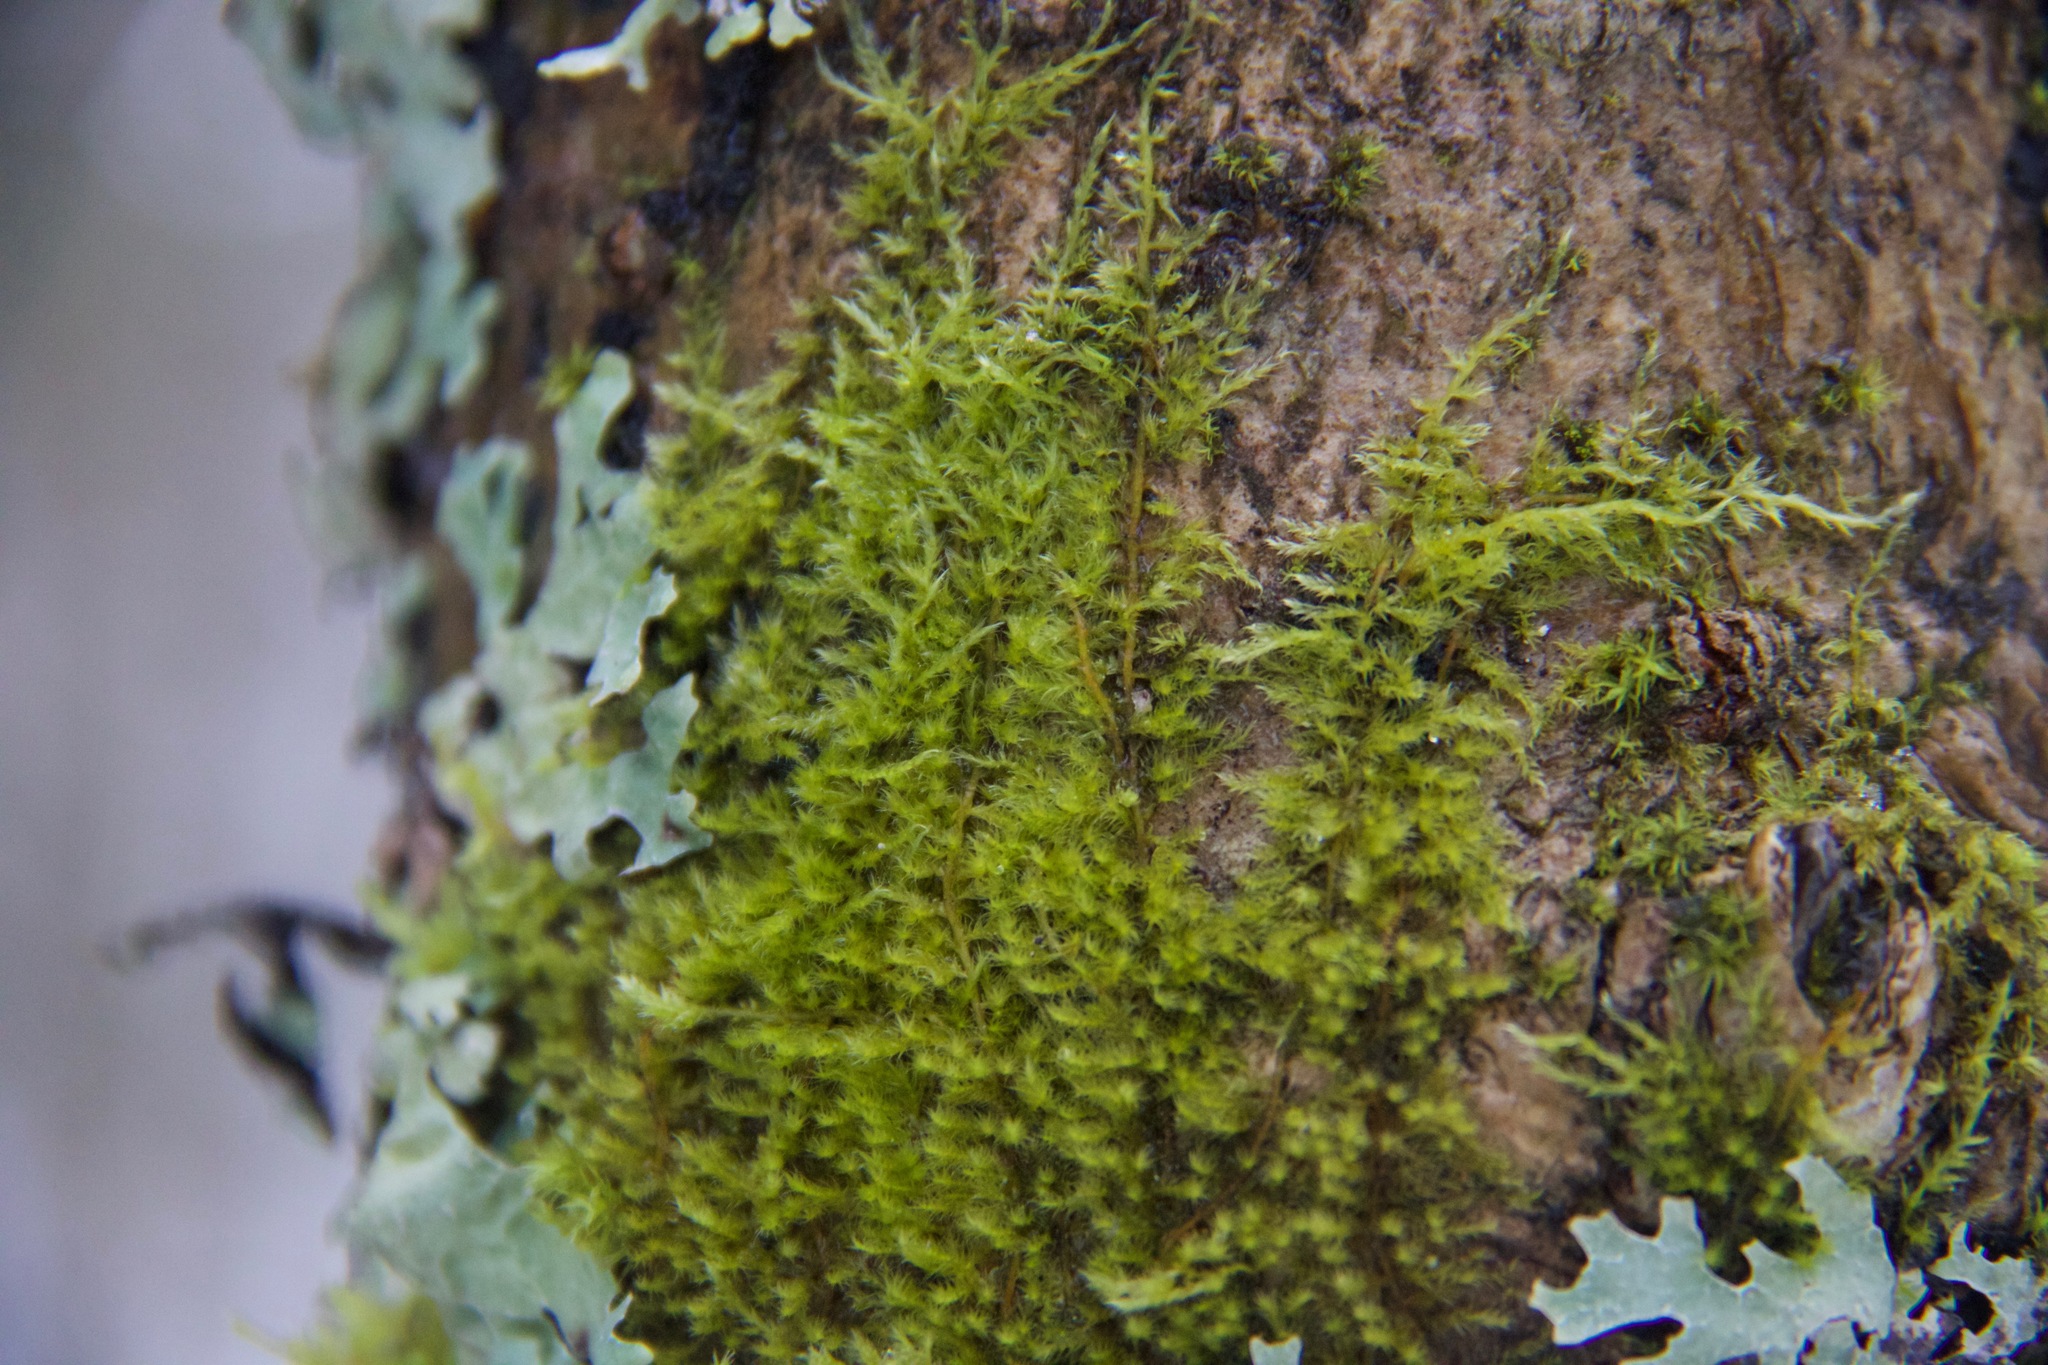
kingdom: Plantae
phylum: Bryophyta
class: Bryopsida
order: Hypnales
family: Pylaisiaceae
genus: Pylaisia
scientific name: Pylaisia polyantha
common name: Many-flowered leskea
